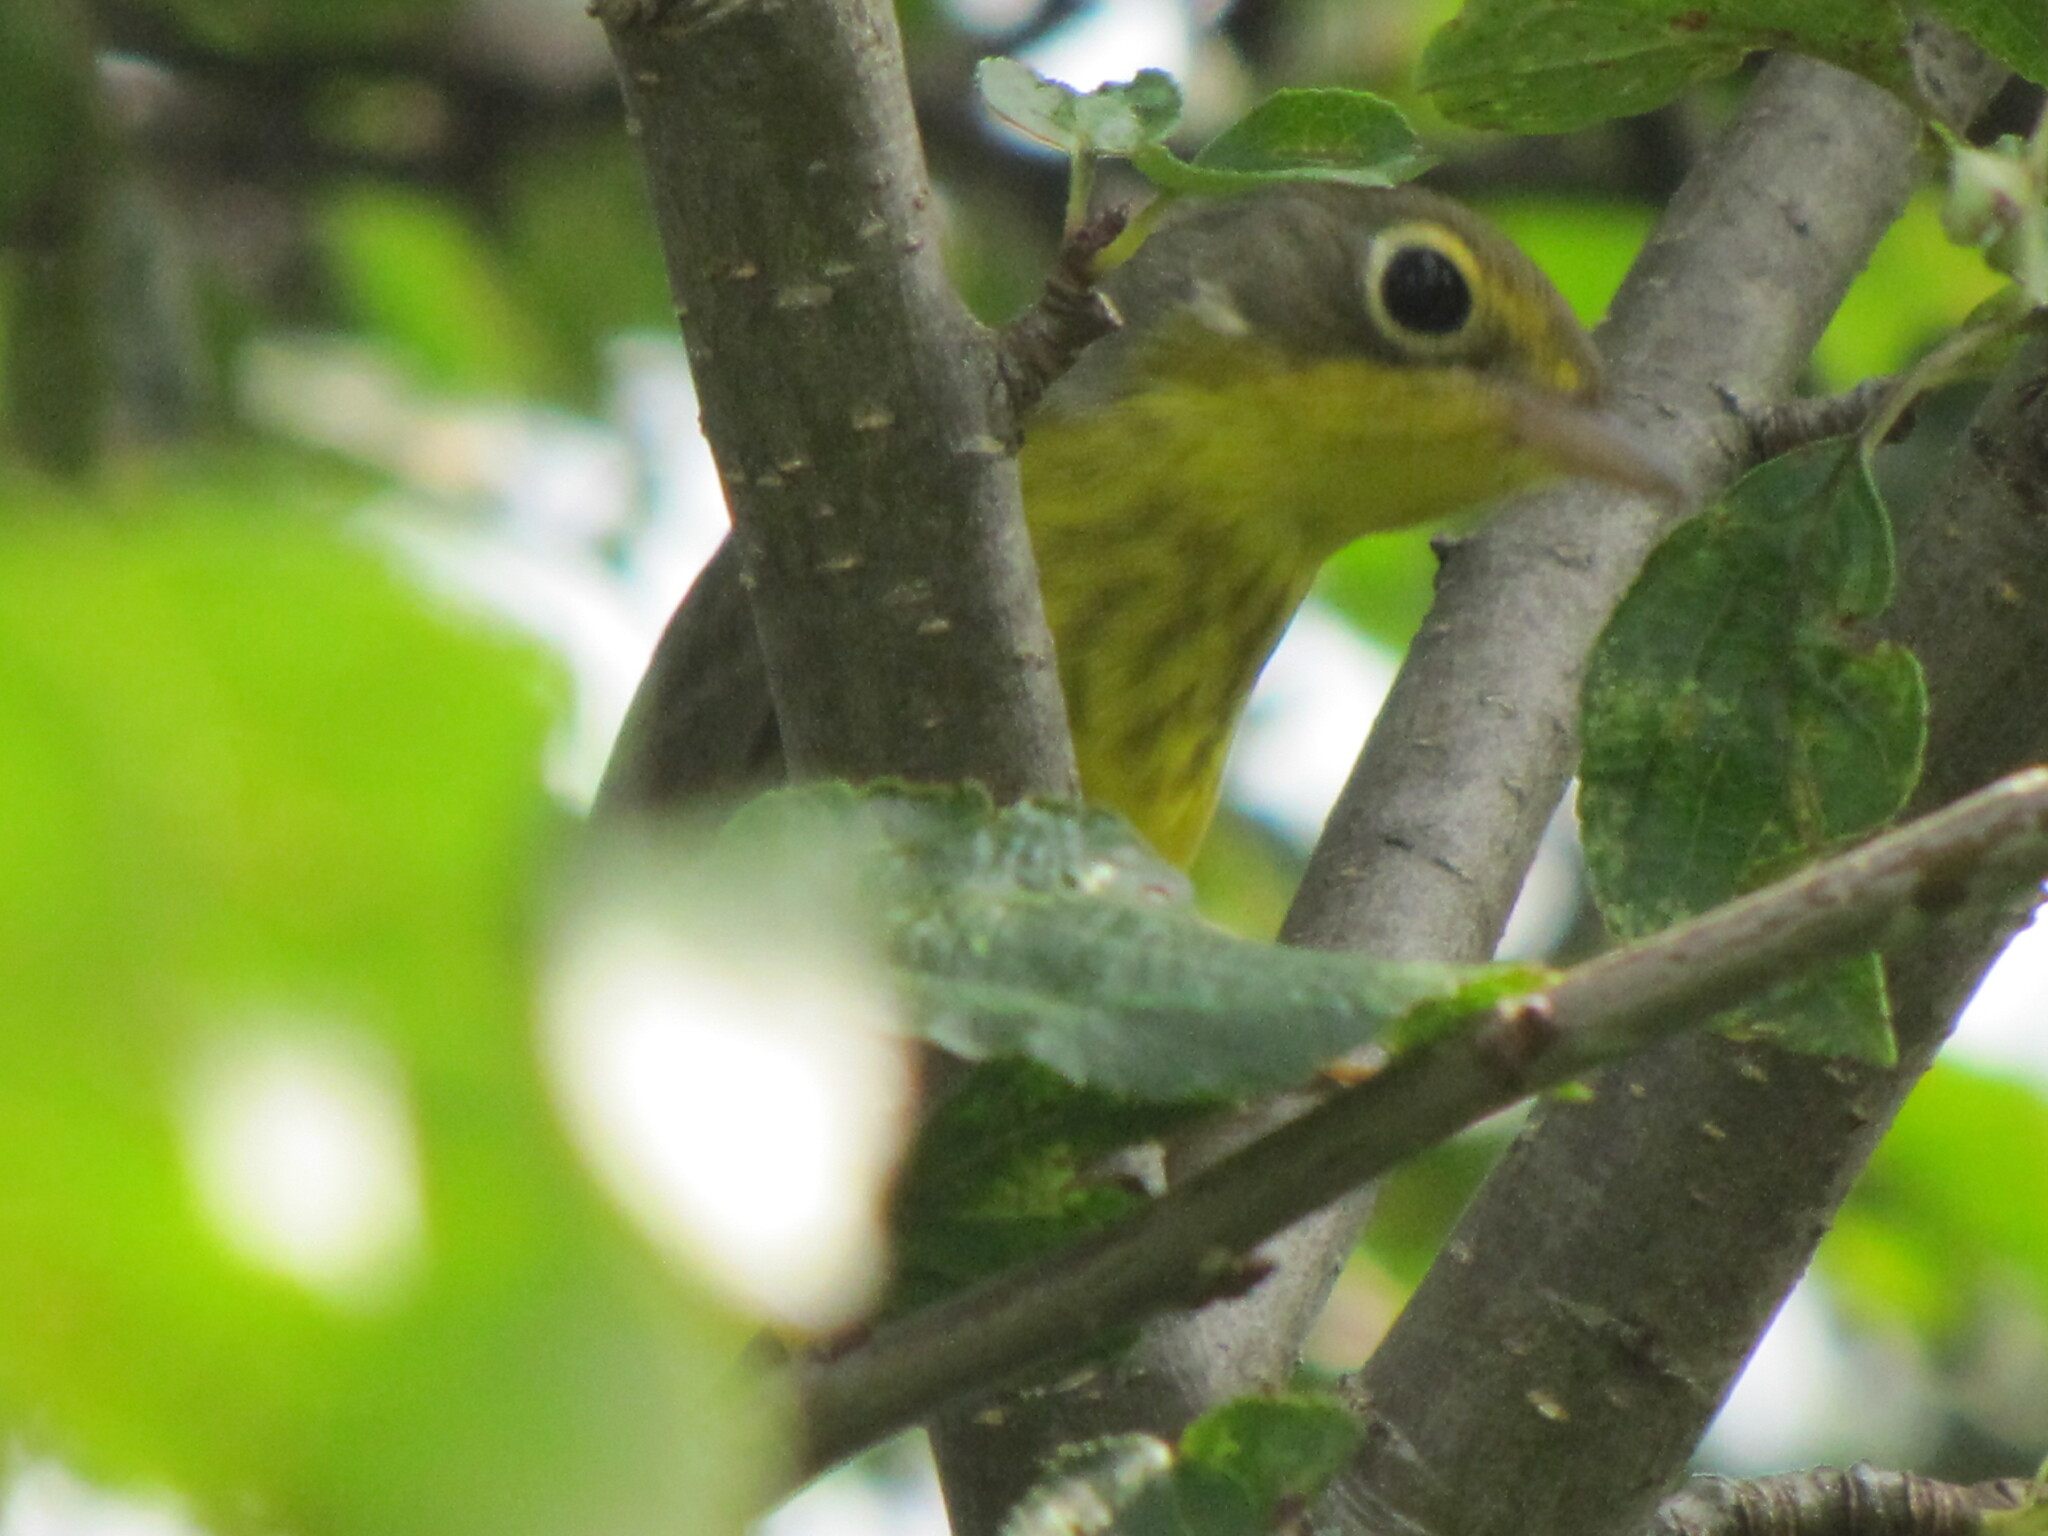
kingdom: Animalia
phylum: Chordata
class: Aves
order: Passeriformes
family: Parulidae
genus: Cardellina
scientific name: Cardellina canadensis
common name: Canada warbler
